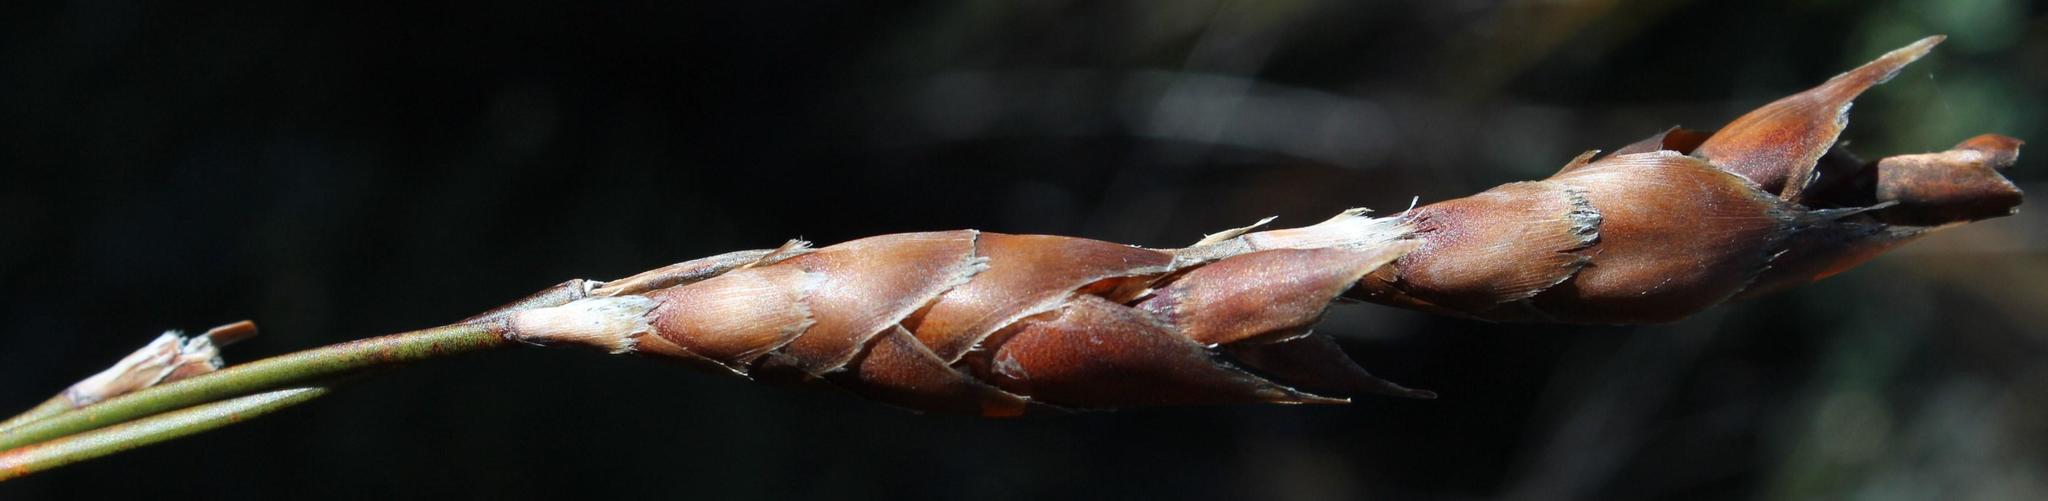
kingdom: Plantae
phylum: Tracheophyta
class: Liliopsida
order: Poales
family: Restionaceae
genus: Cannomois
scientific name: Cannomois robusta
